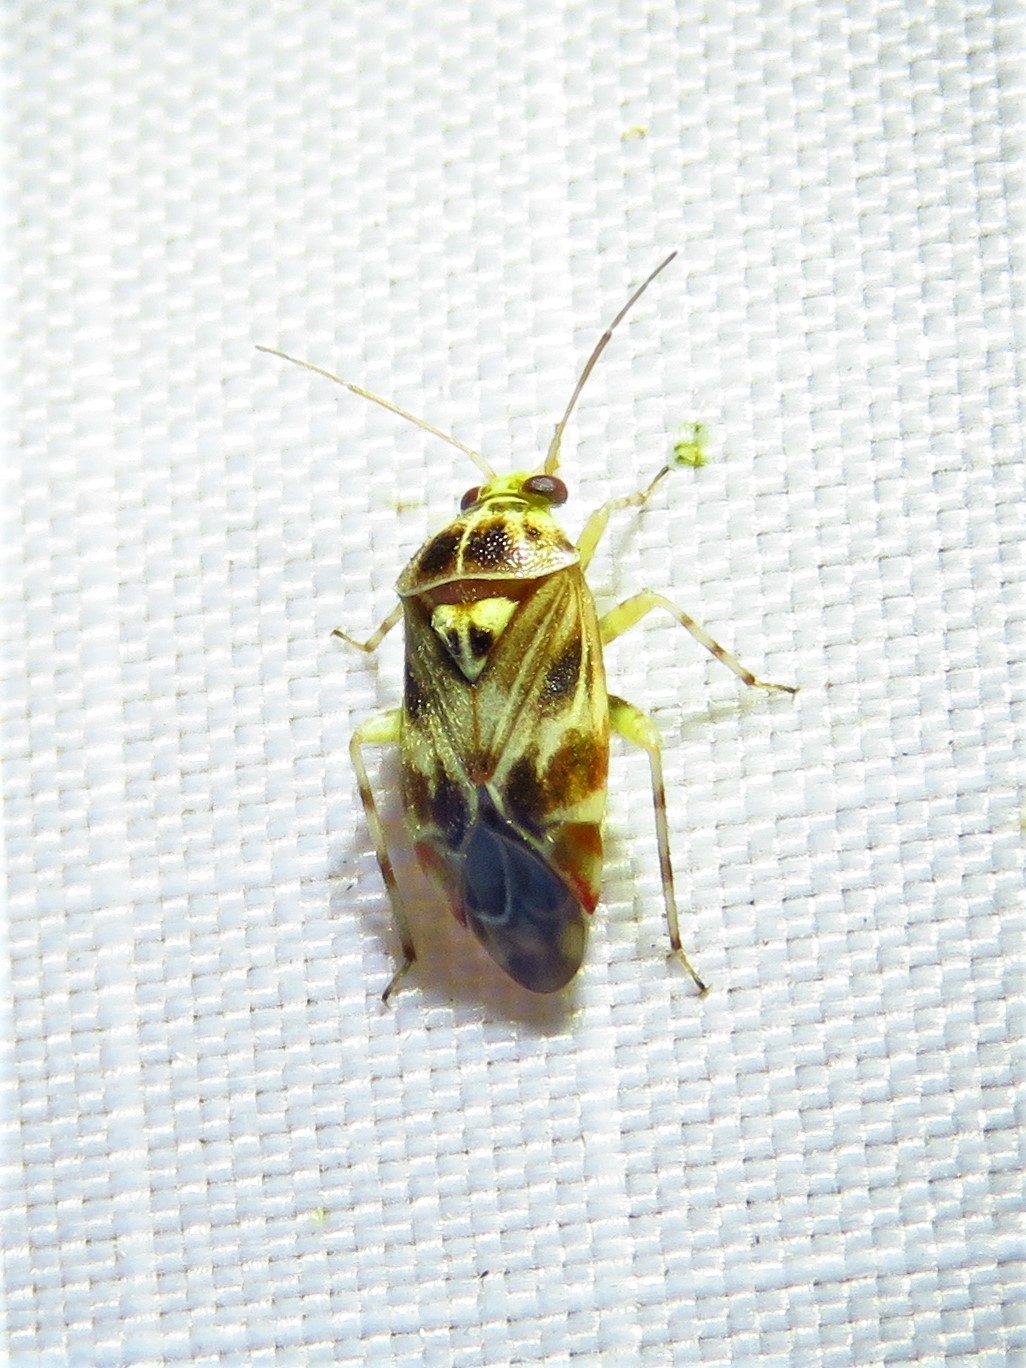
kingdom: Animalia
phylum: Arthropoda
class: Insecta
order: Hemiptera
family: Miridae
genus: Tropidosteptes
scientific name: Tropidosteptes quercicola
